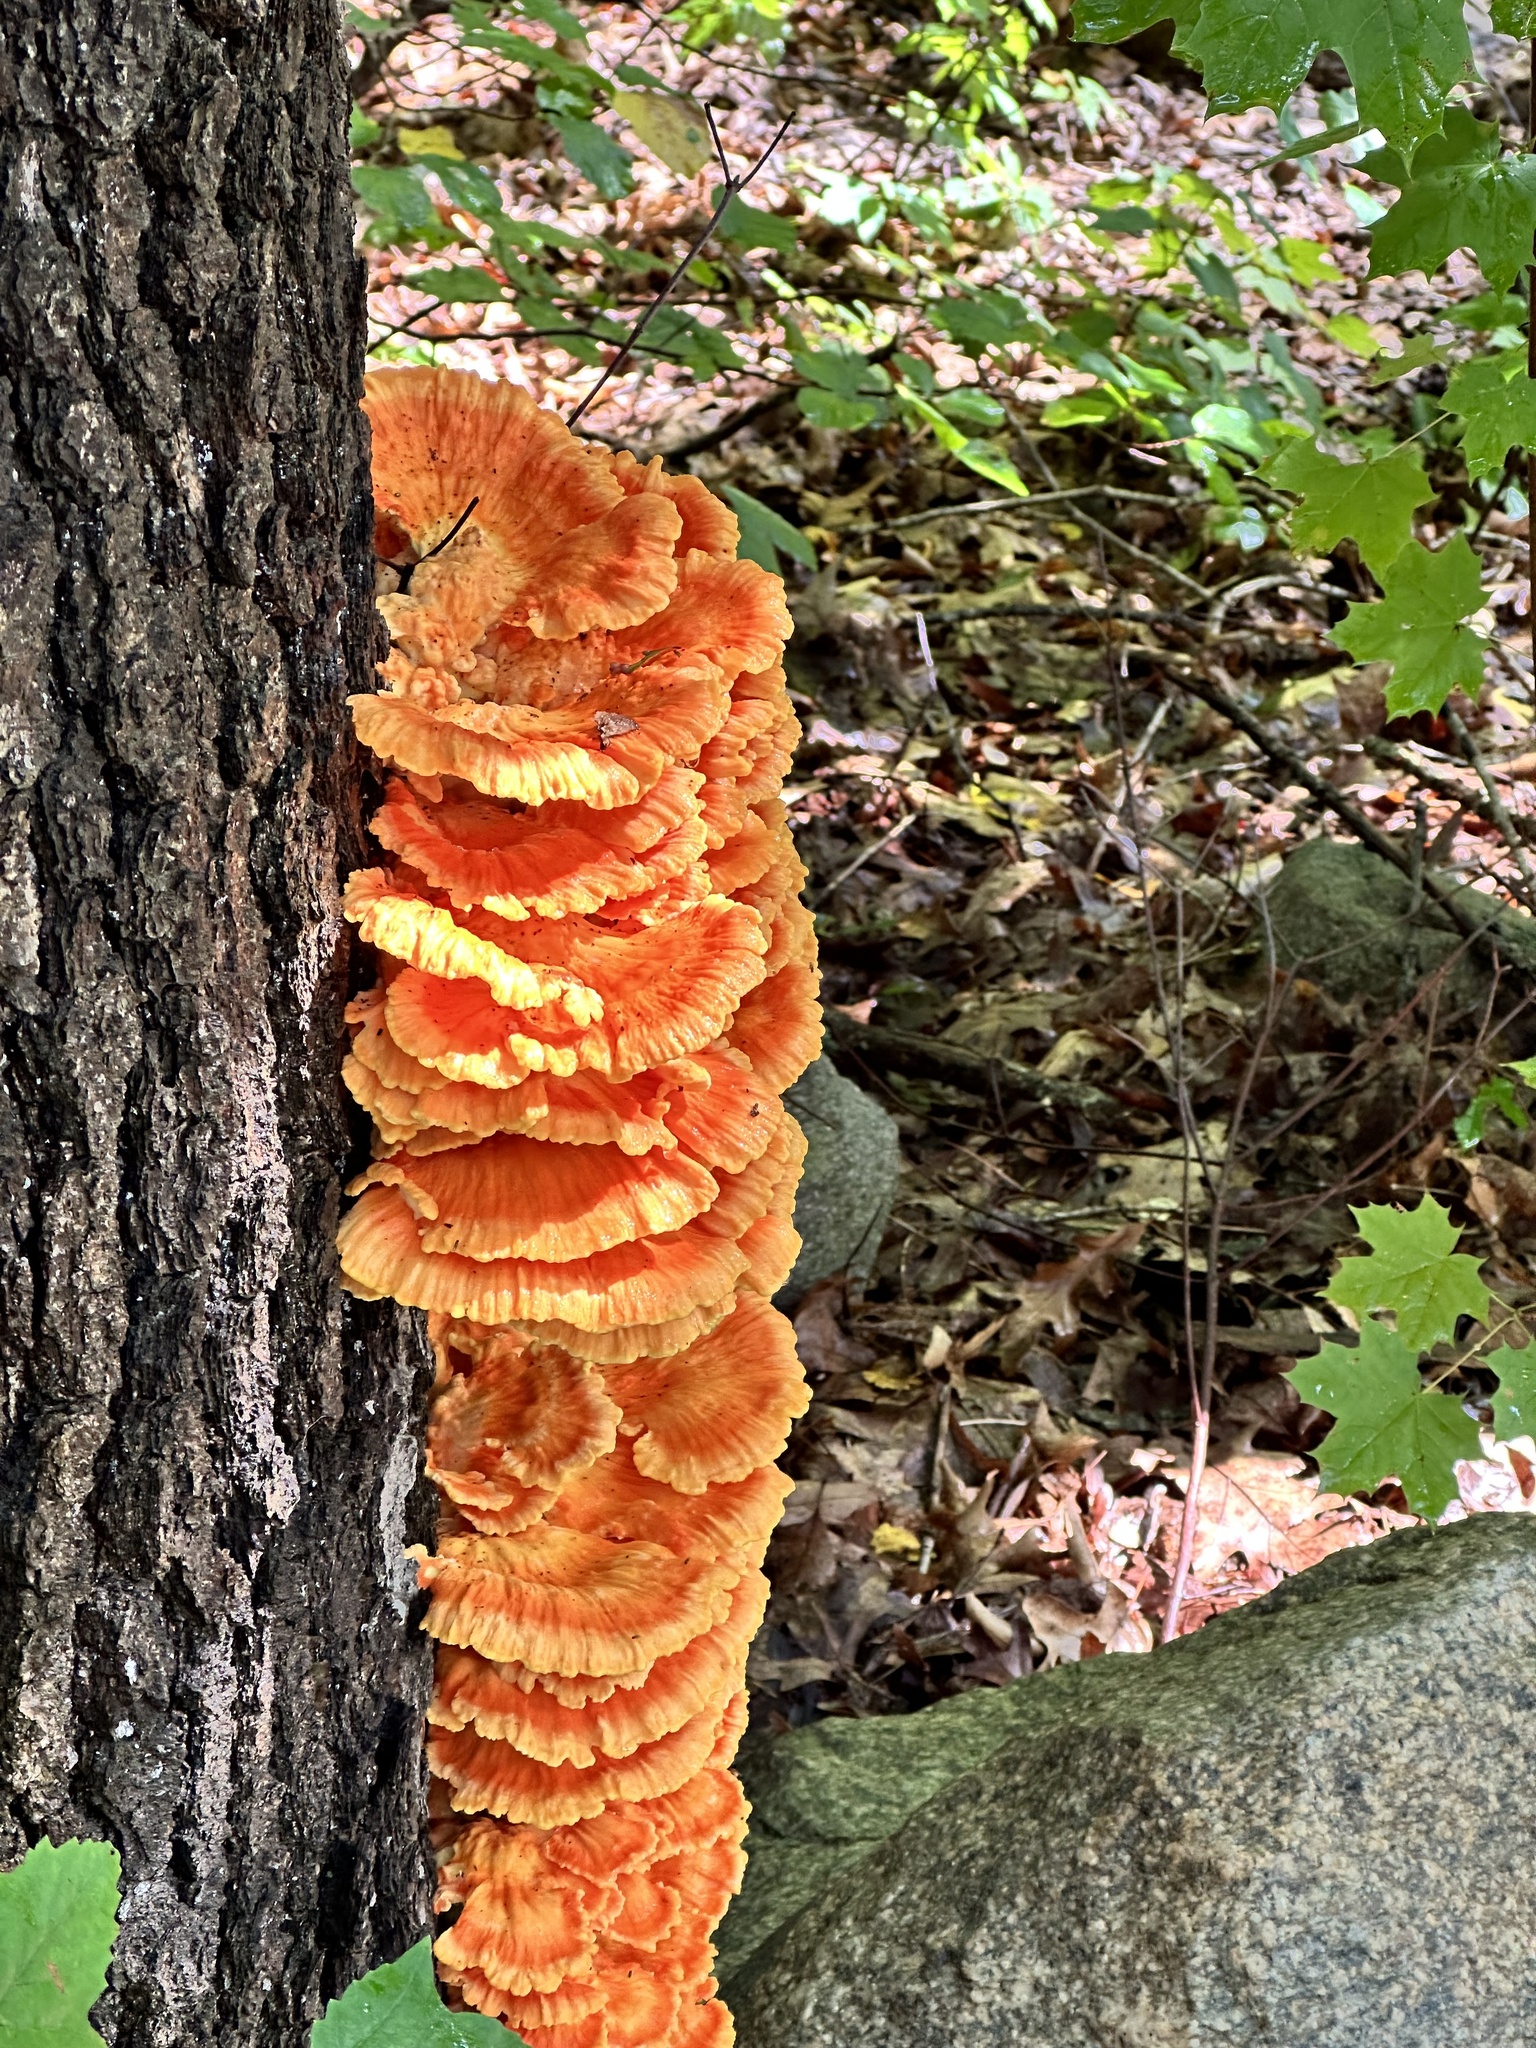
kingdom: Fungi
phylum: Basidiomycota
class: Agaricomycetes
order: Polyporales
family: Laetiporaceae
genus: Laetiporus
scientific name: Laetiporus sulphureus
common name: Chicken of the woods
